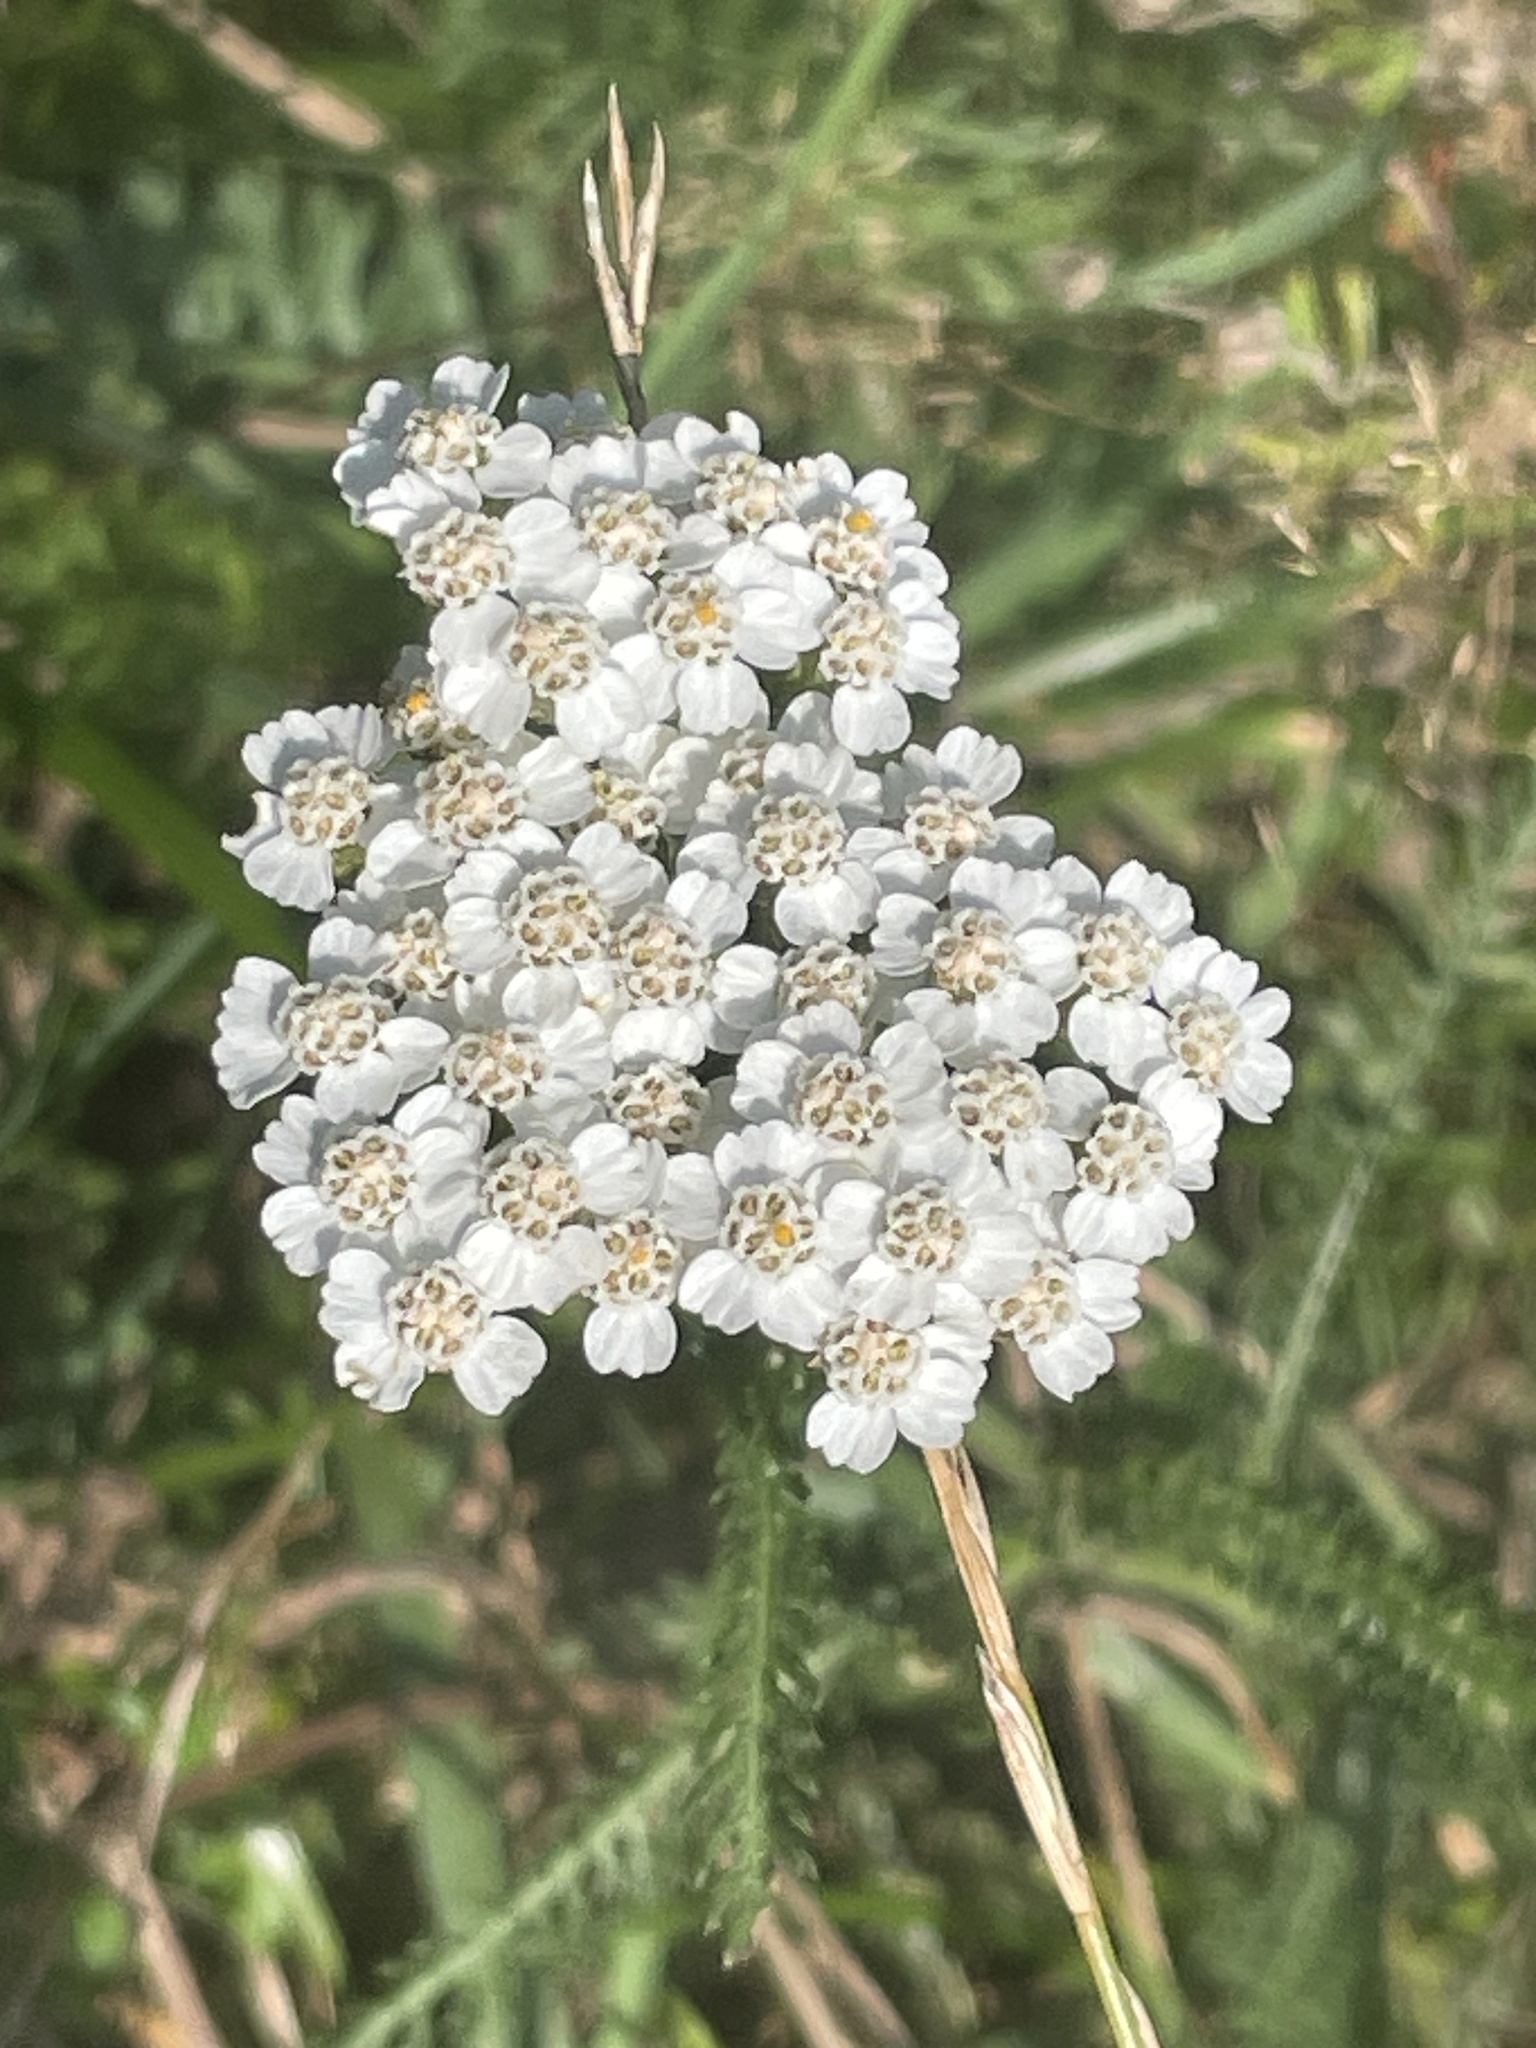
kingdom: Plantae
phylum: Tracheophyta
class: Magnoliopsida
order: Asterales
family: Asteraceae
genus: Achillea
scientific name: Achillea millefolium
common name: Yarrow
